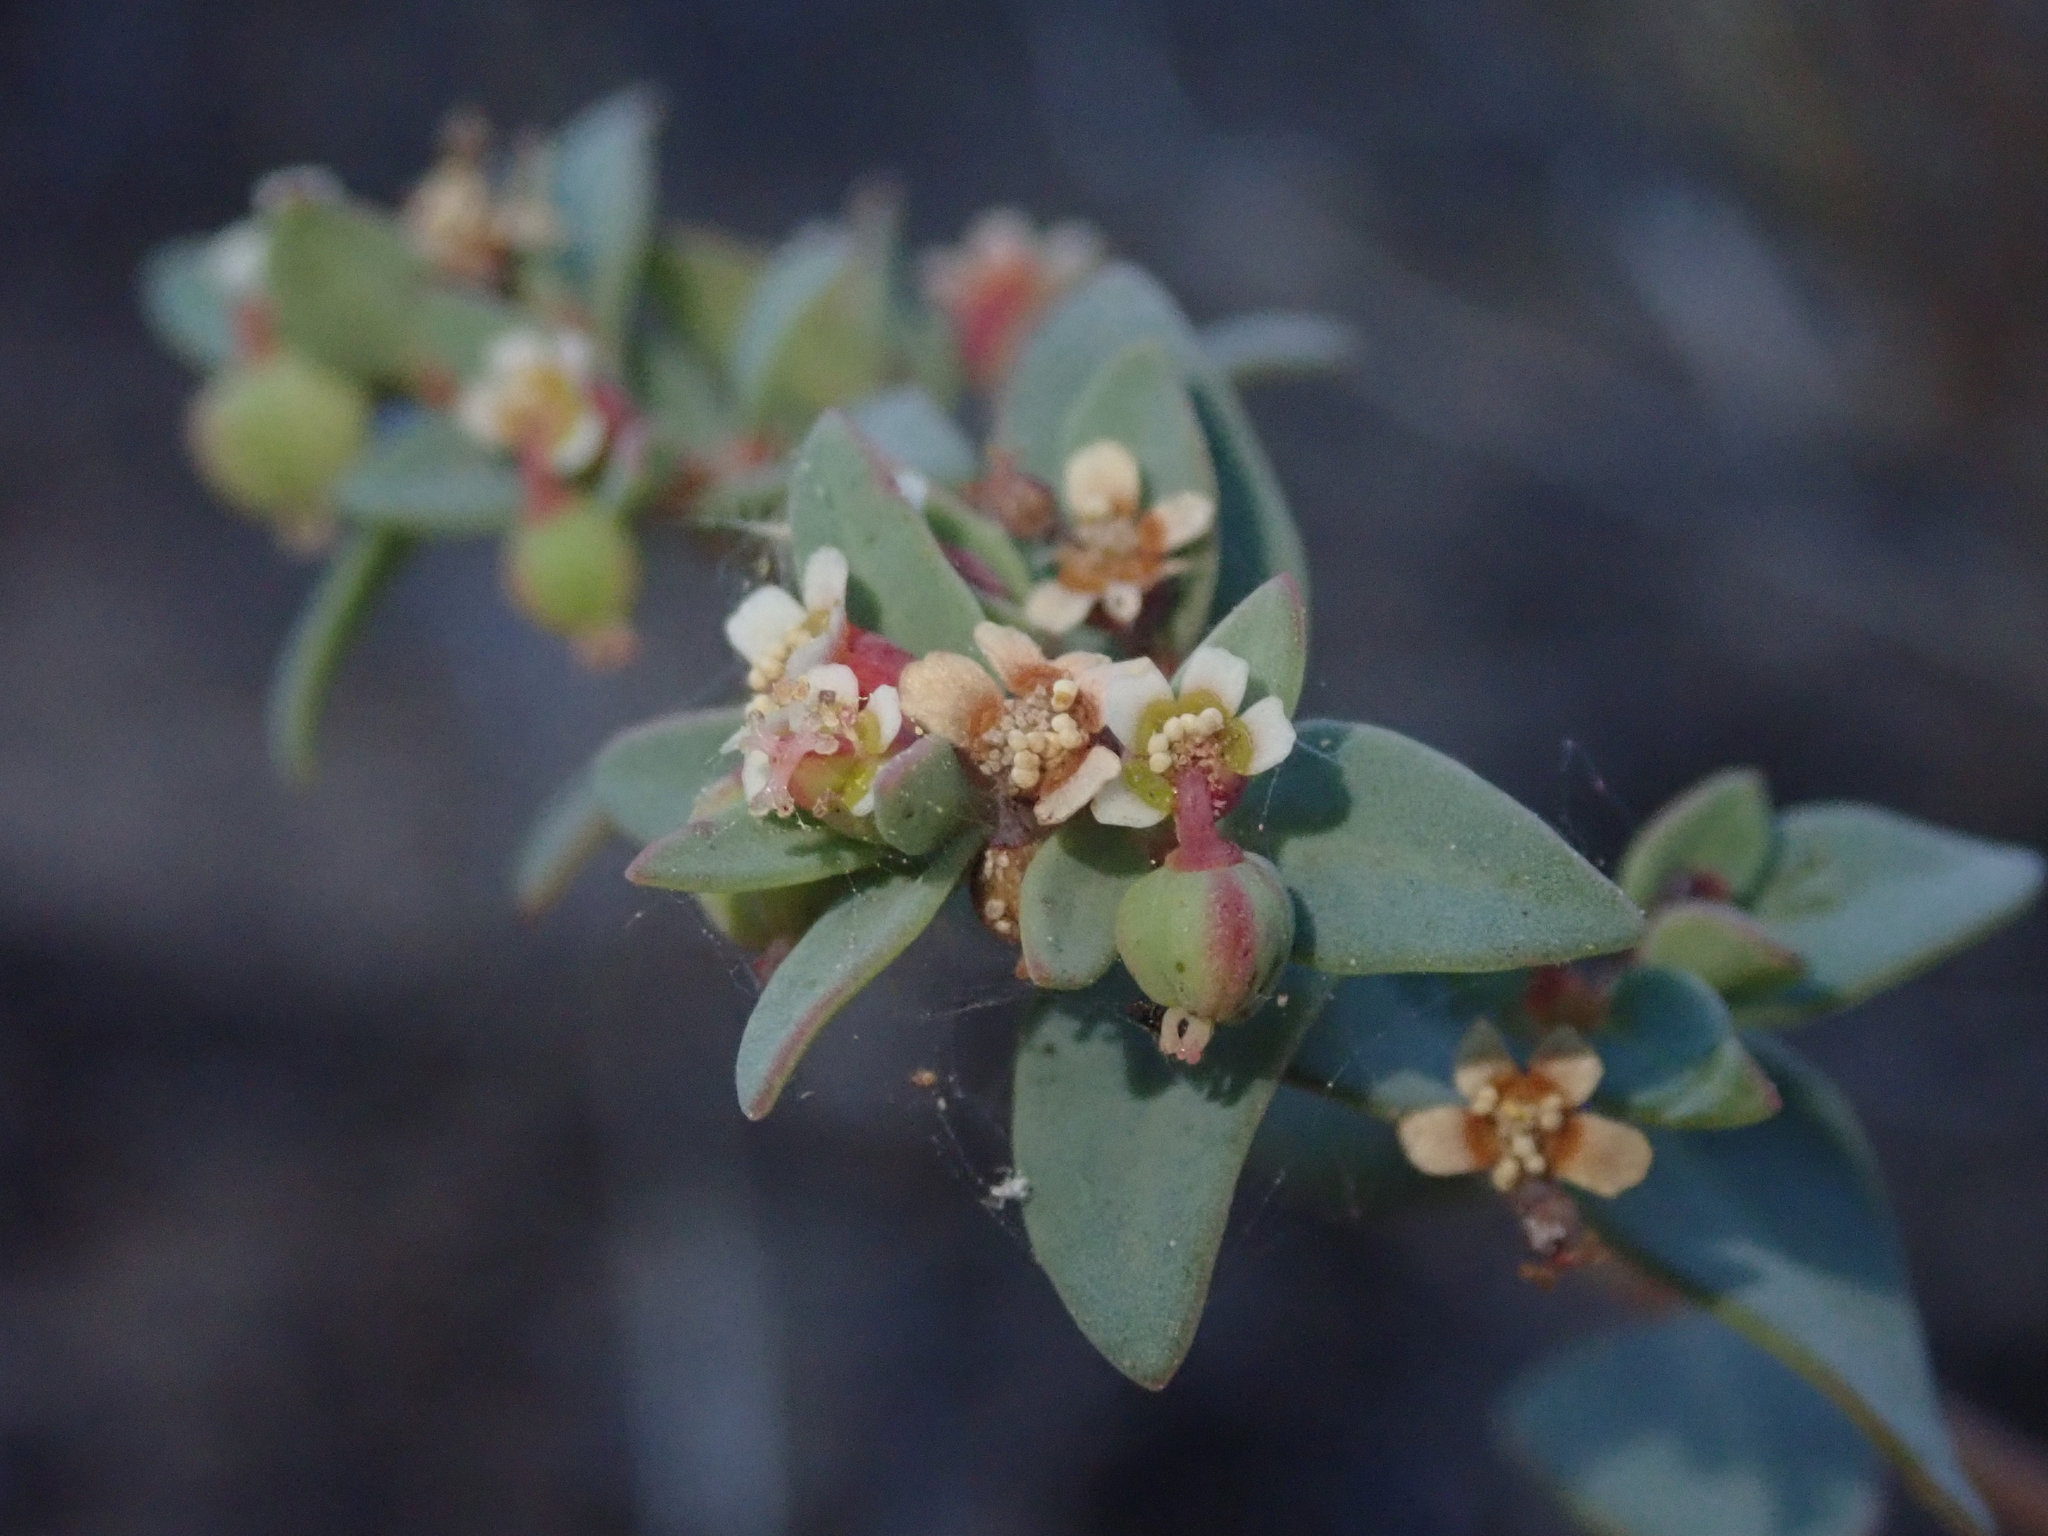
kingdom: Plantae
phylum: Tracheophyta
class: Magnoliopsida
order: Malpighiales
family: Euphorbiaceae
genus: Euphorbia
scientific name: Euphorbia fendleri
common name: Fendler's euphorbia
